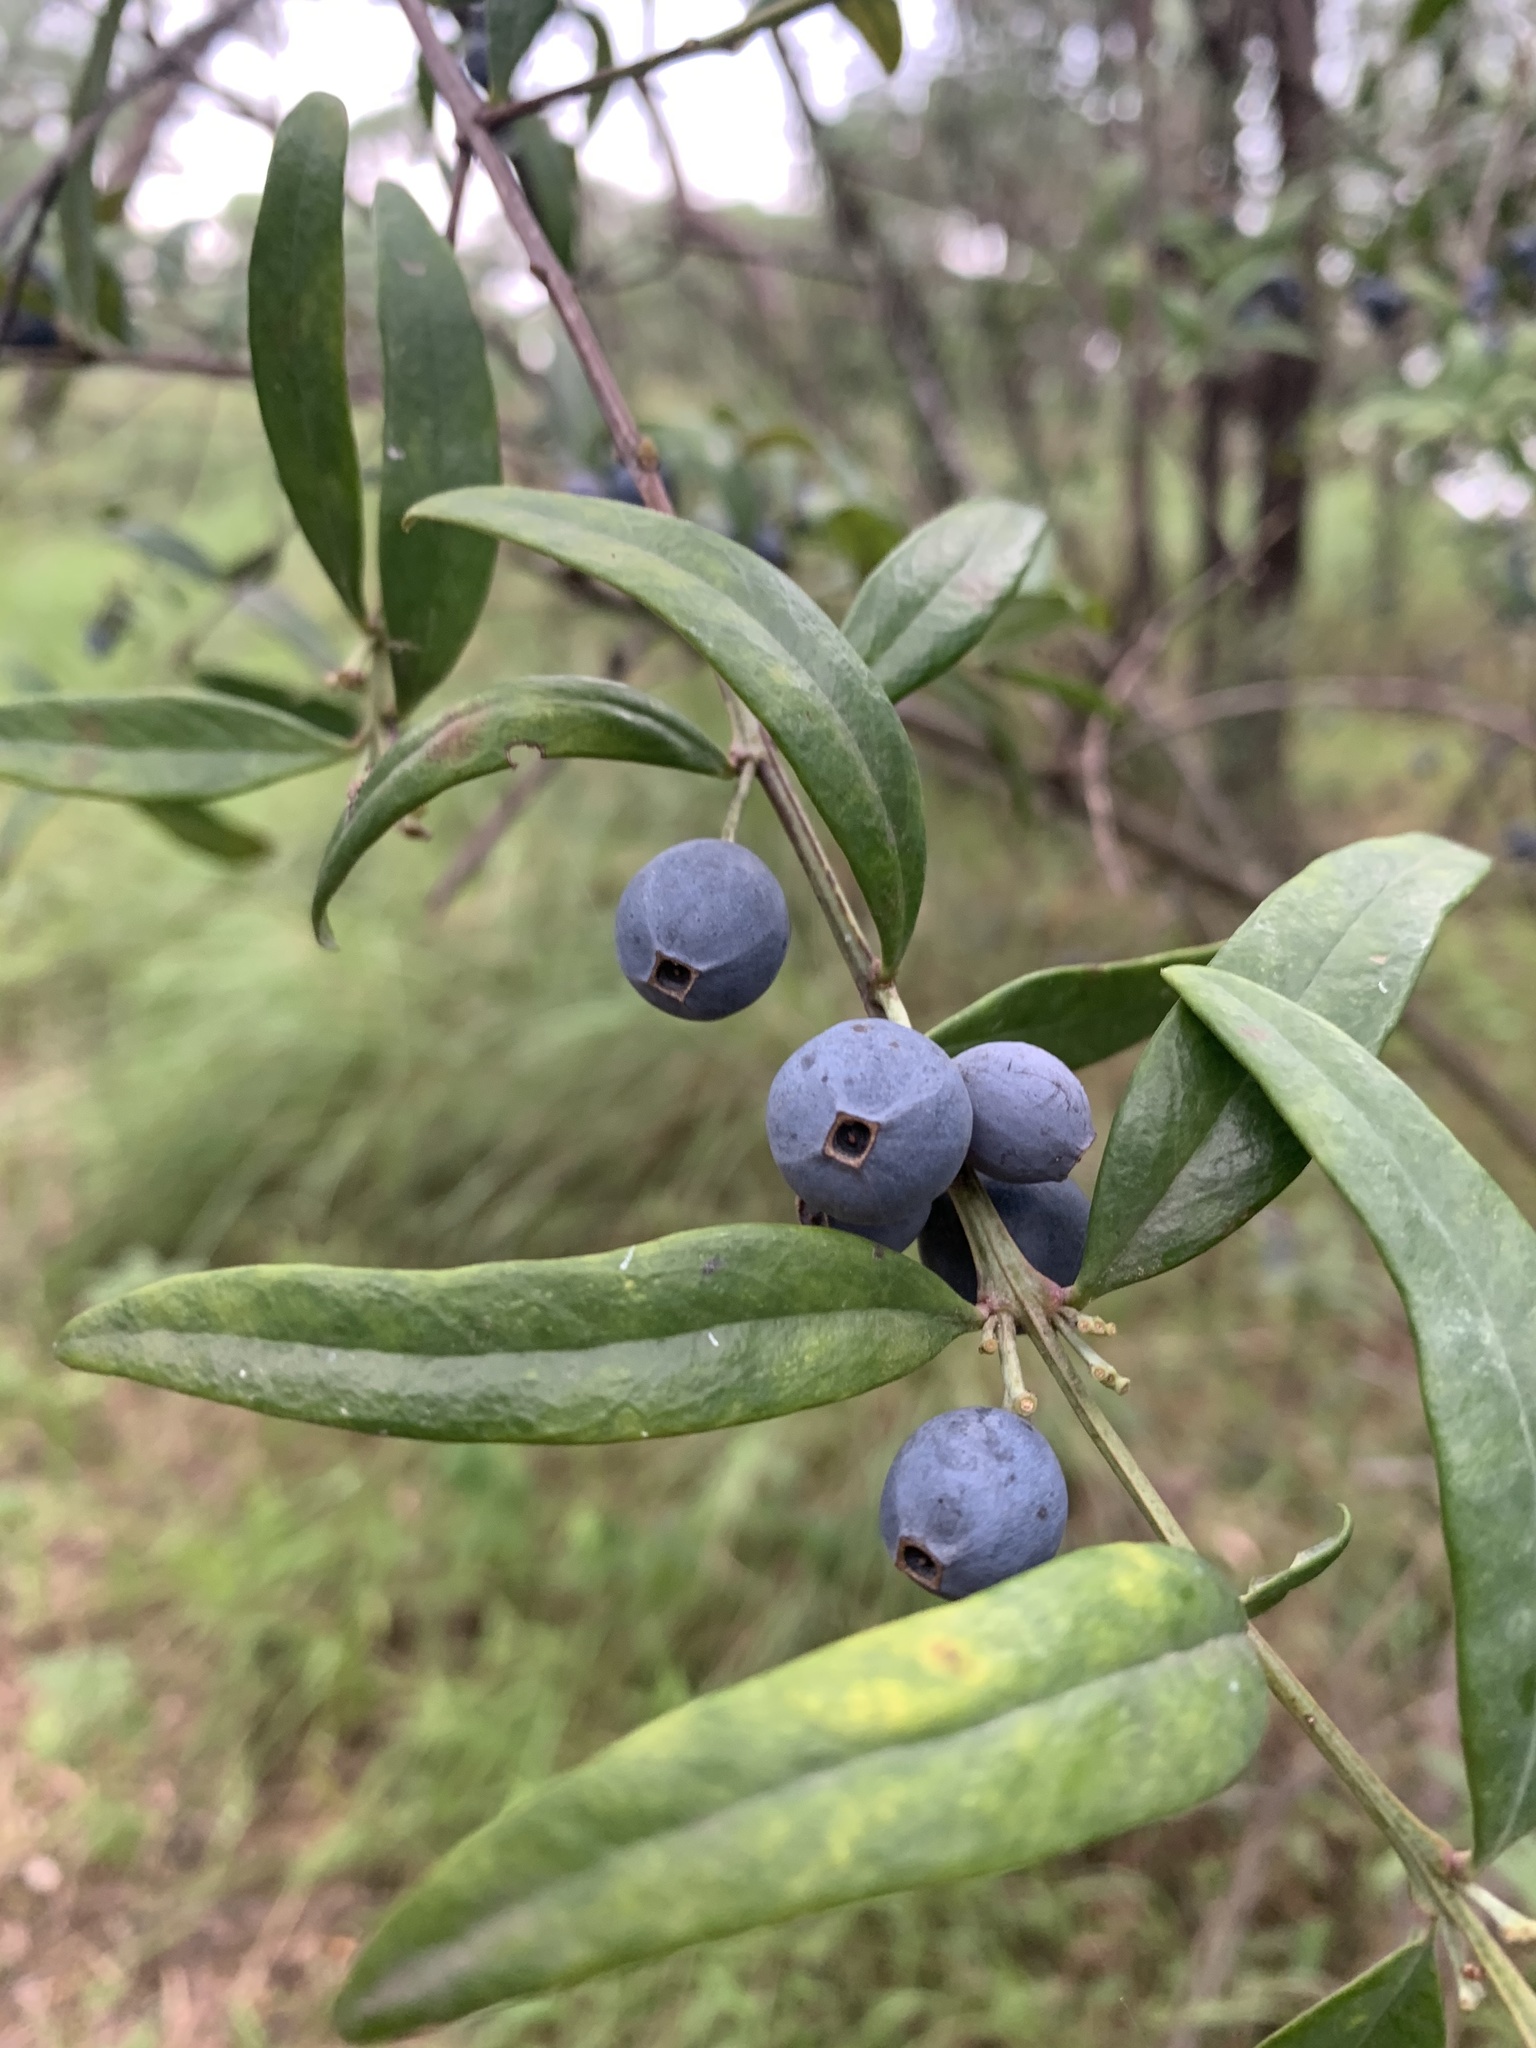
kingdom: Plantae
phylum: Tracheophyta
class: Magnoliopsida
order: Santalales
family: Santalaceae
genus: Santalum
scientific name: Santalum obtusifolium
